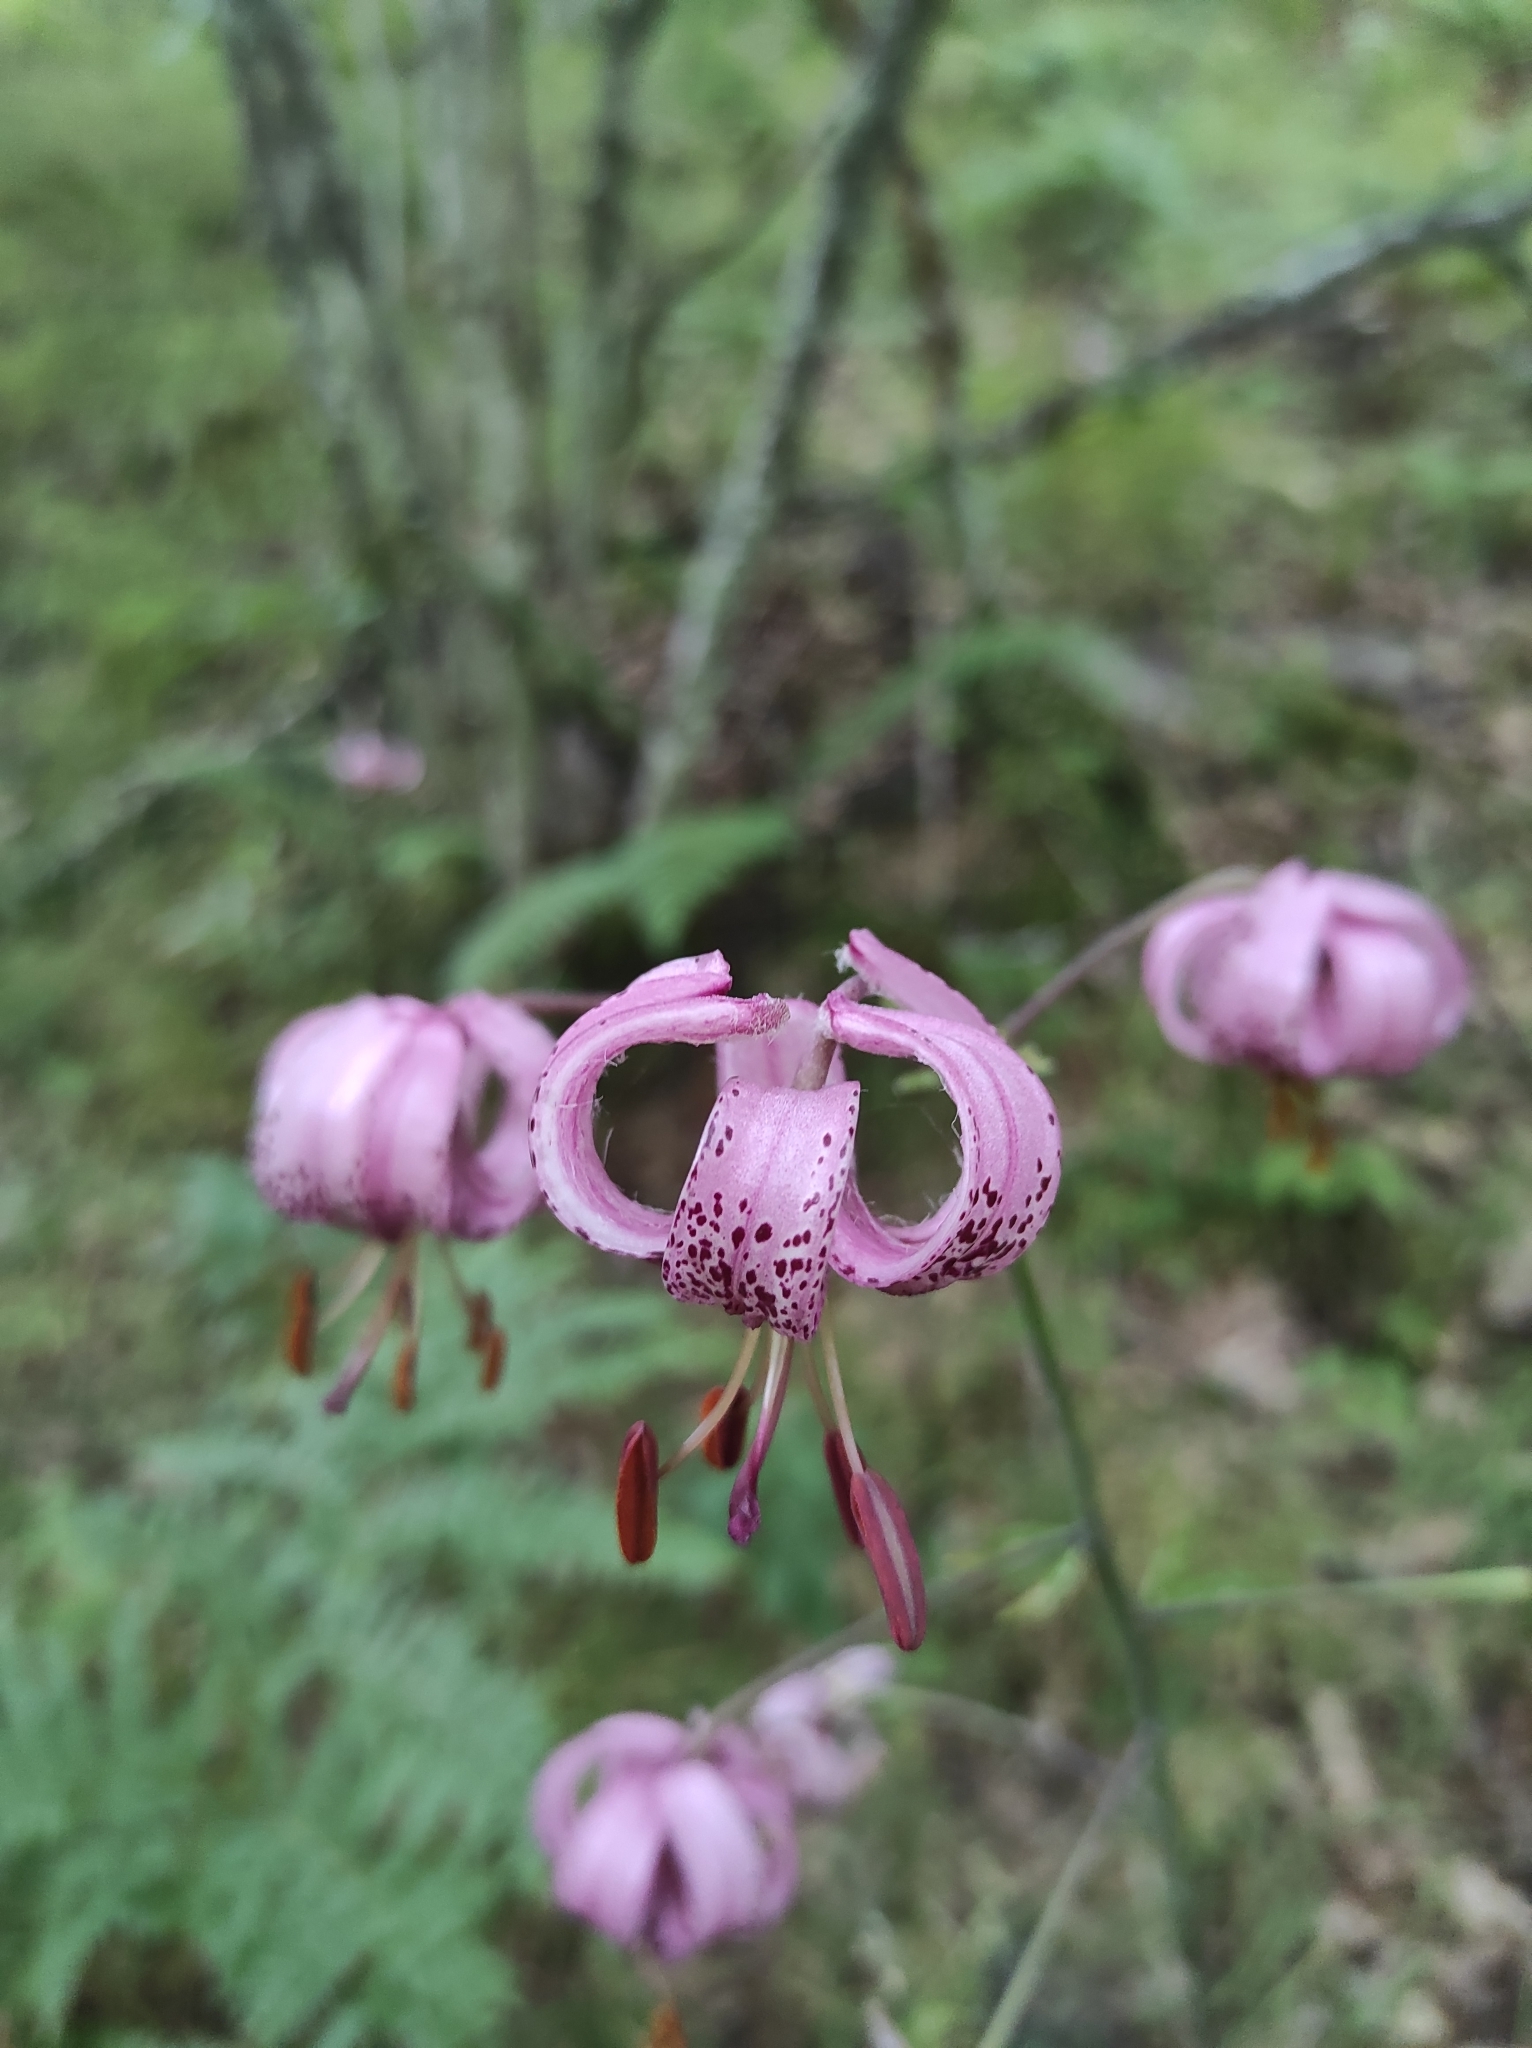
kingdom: Plantae
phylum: Tracheophyta
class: Liliopsida
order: Liliales
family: Liliaceae
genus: Lilium
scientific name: Lilium martagon
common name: Martagon lily
